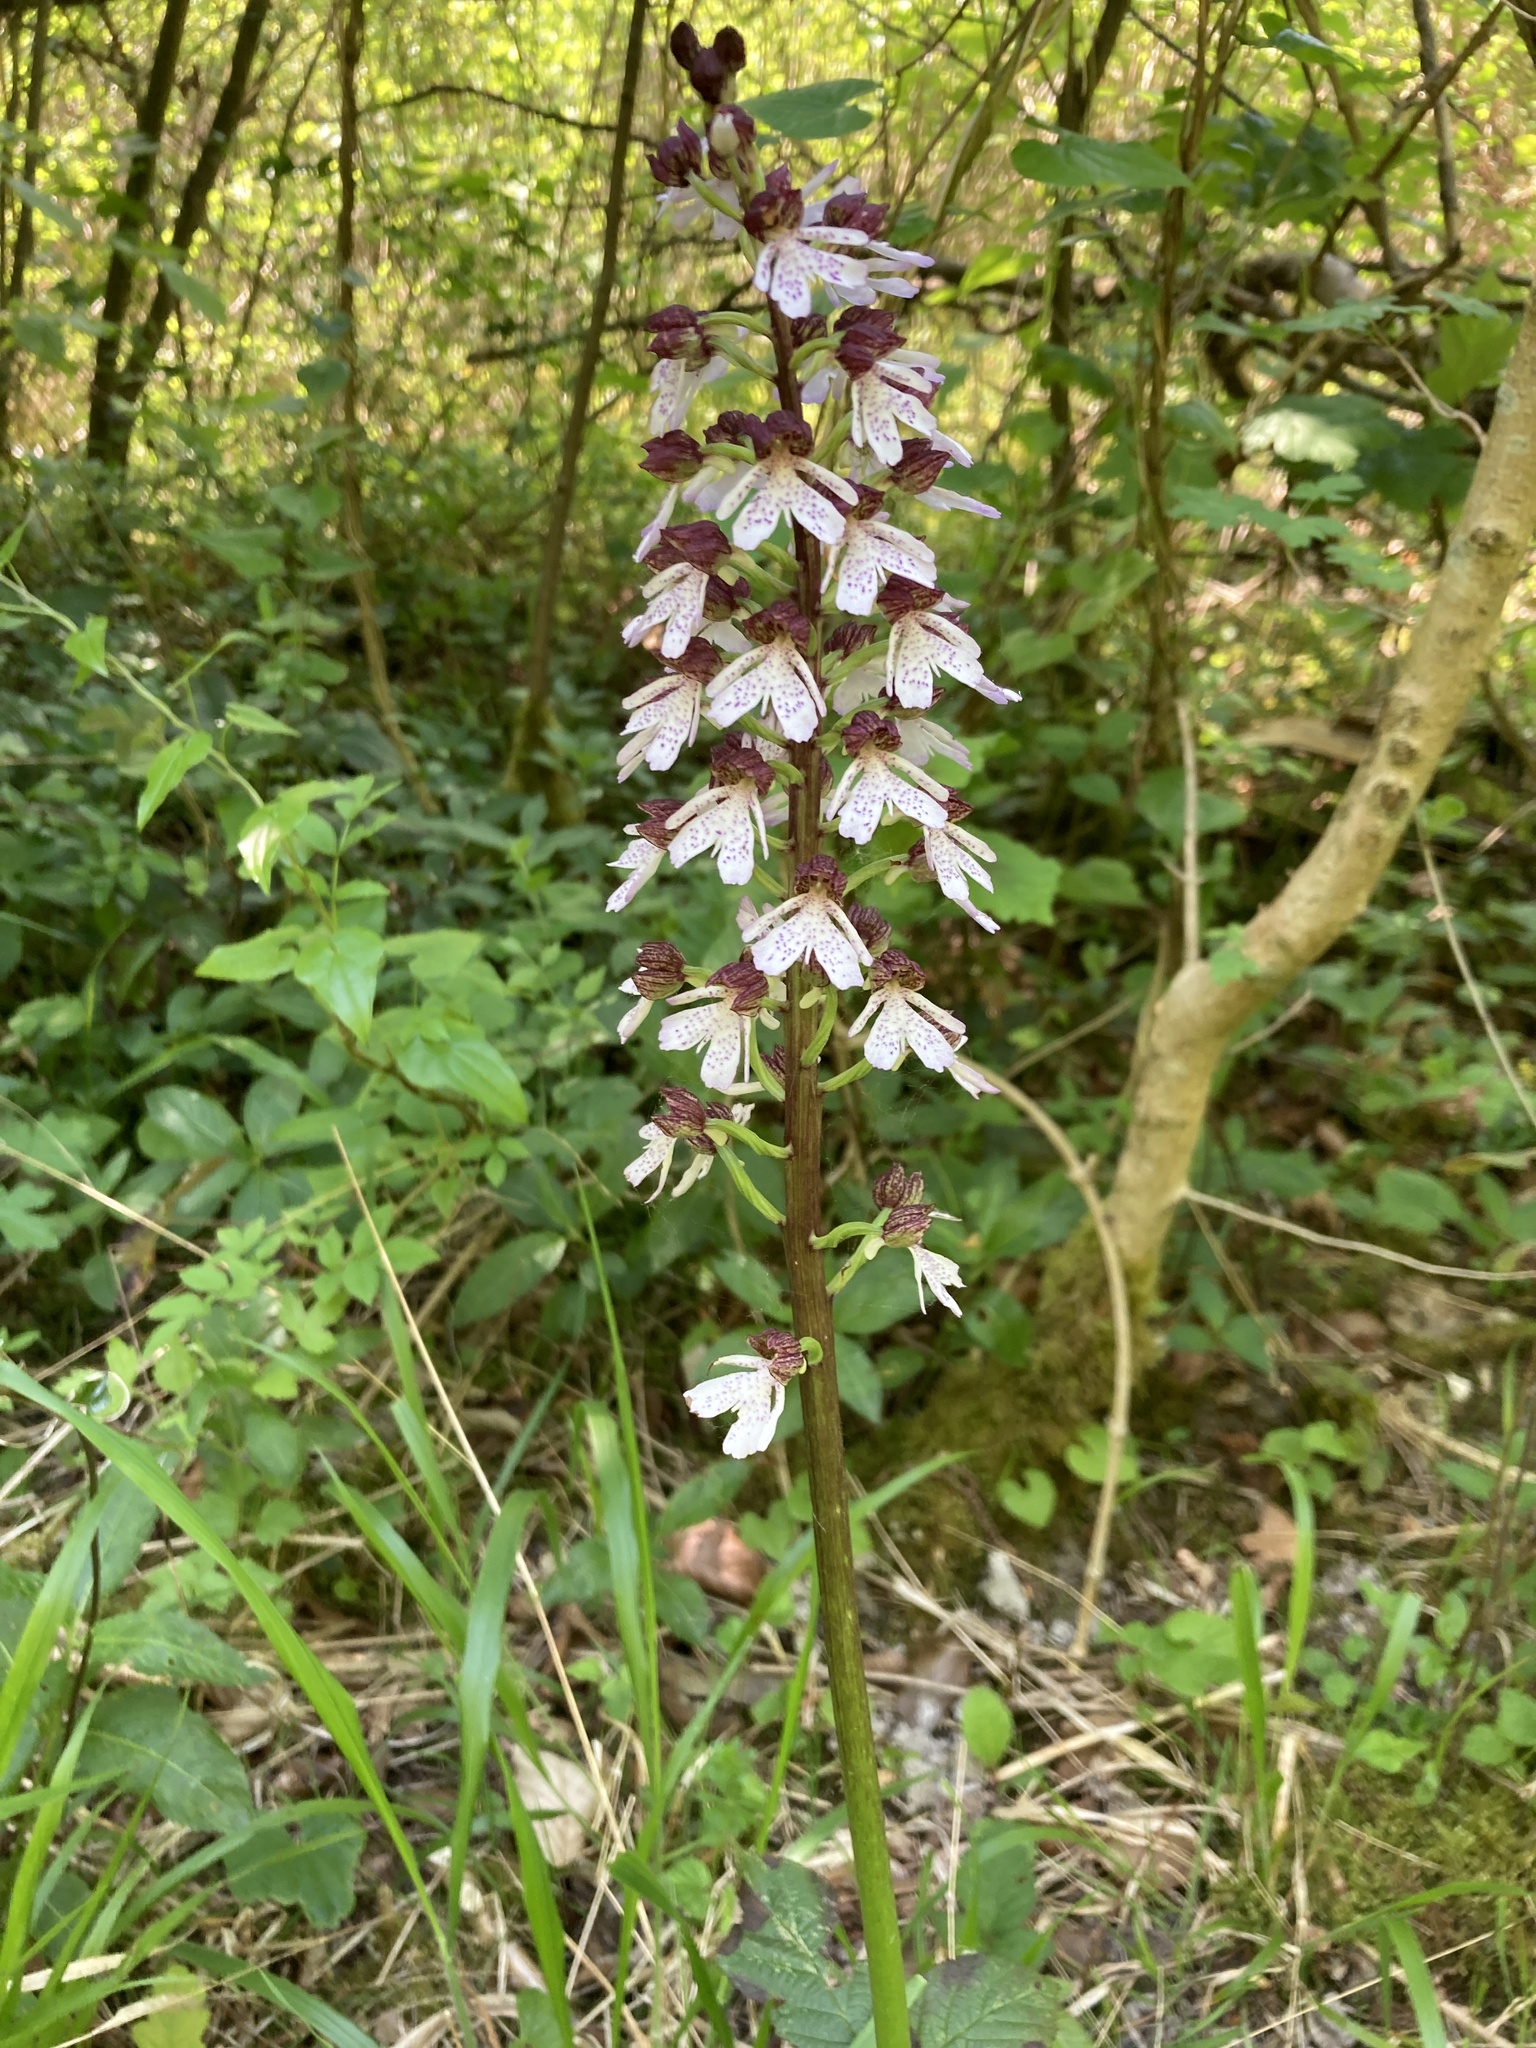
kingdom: Plantae
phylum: Tracheophyta
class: Liliopsida
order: Asparagales
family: Orchidaceae
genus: Orchis
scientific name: Orchis purpurea
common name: Lady orchid
